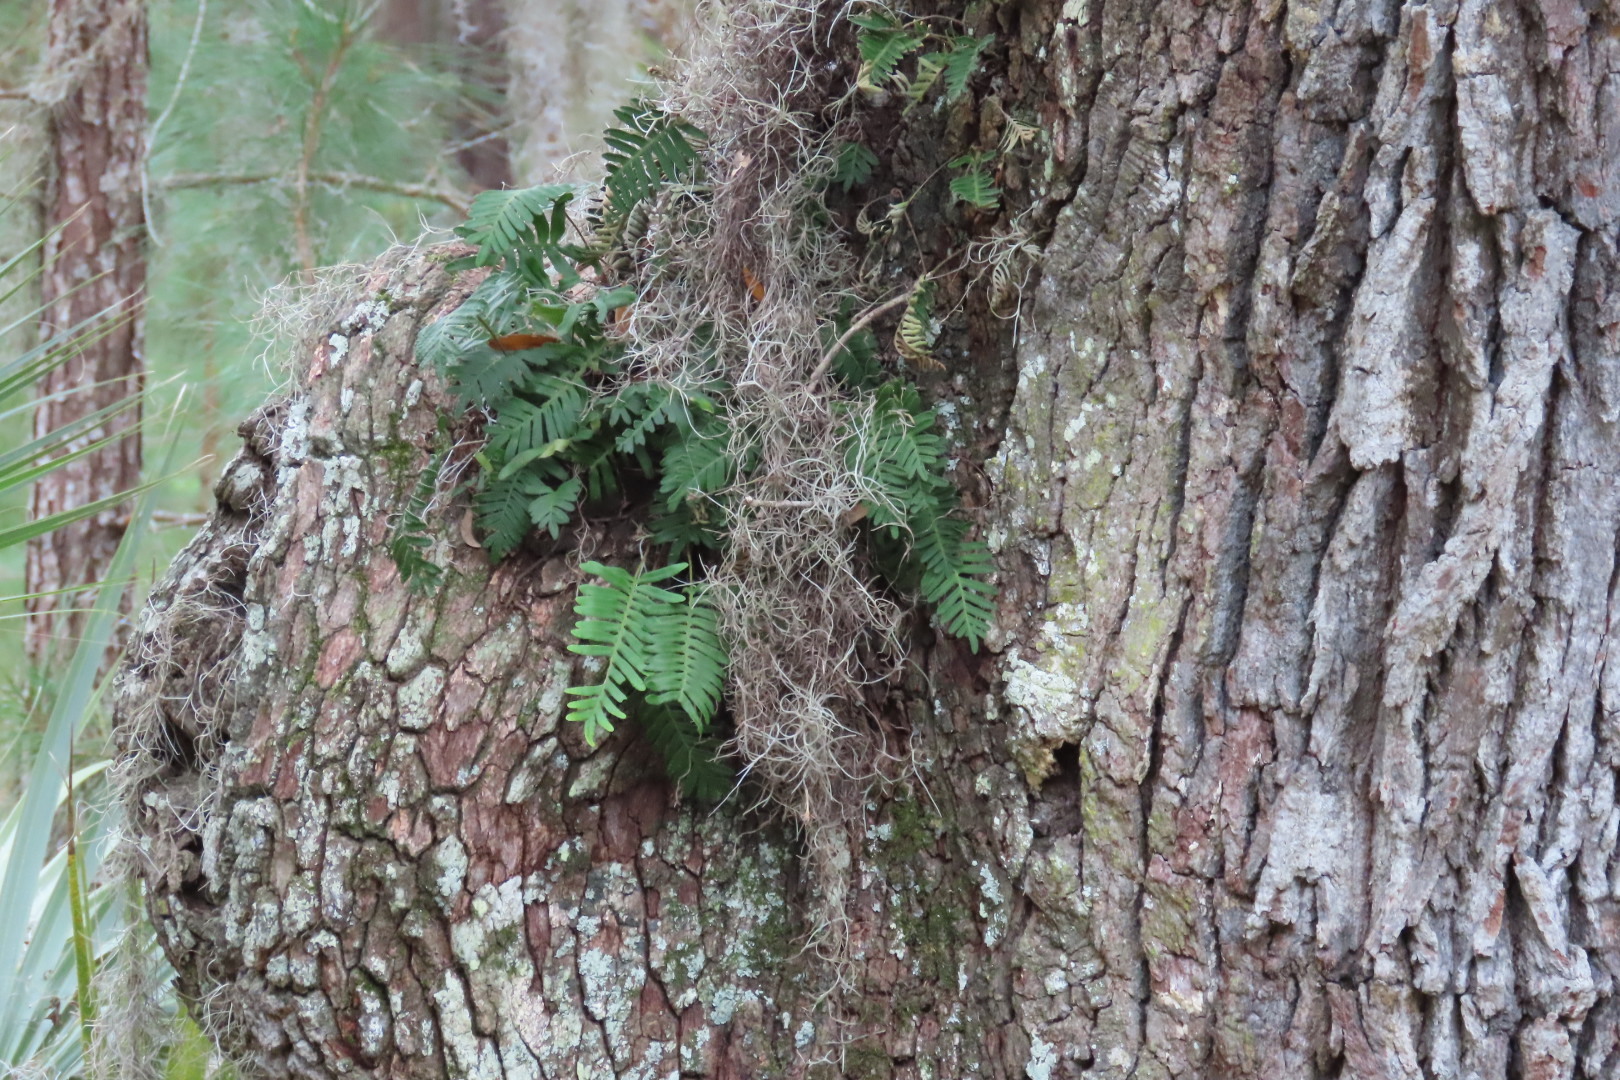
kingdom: Plantae
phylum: Tracheophyta
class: Polypodiopsida
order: Polypodiales
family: Polypodiaceae
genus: Pleopeltis
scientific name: Pleopeltis michauxiana
